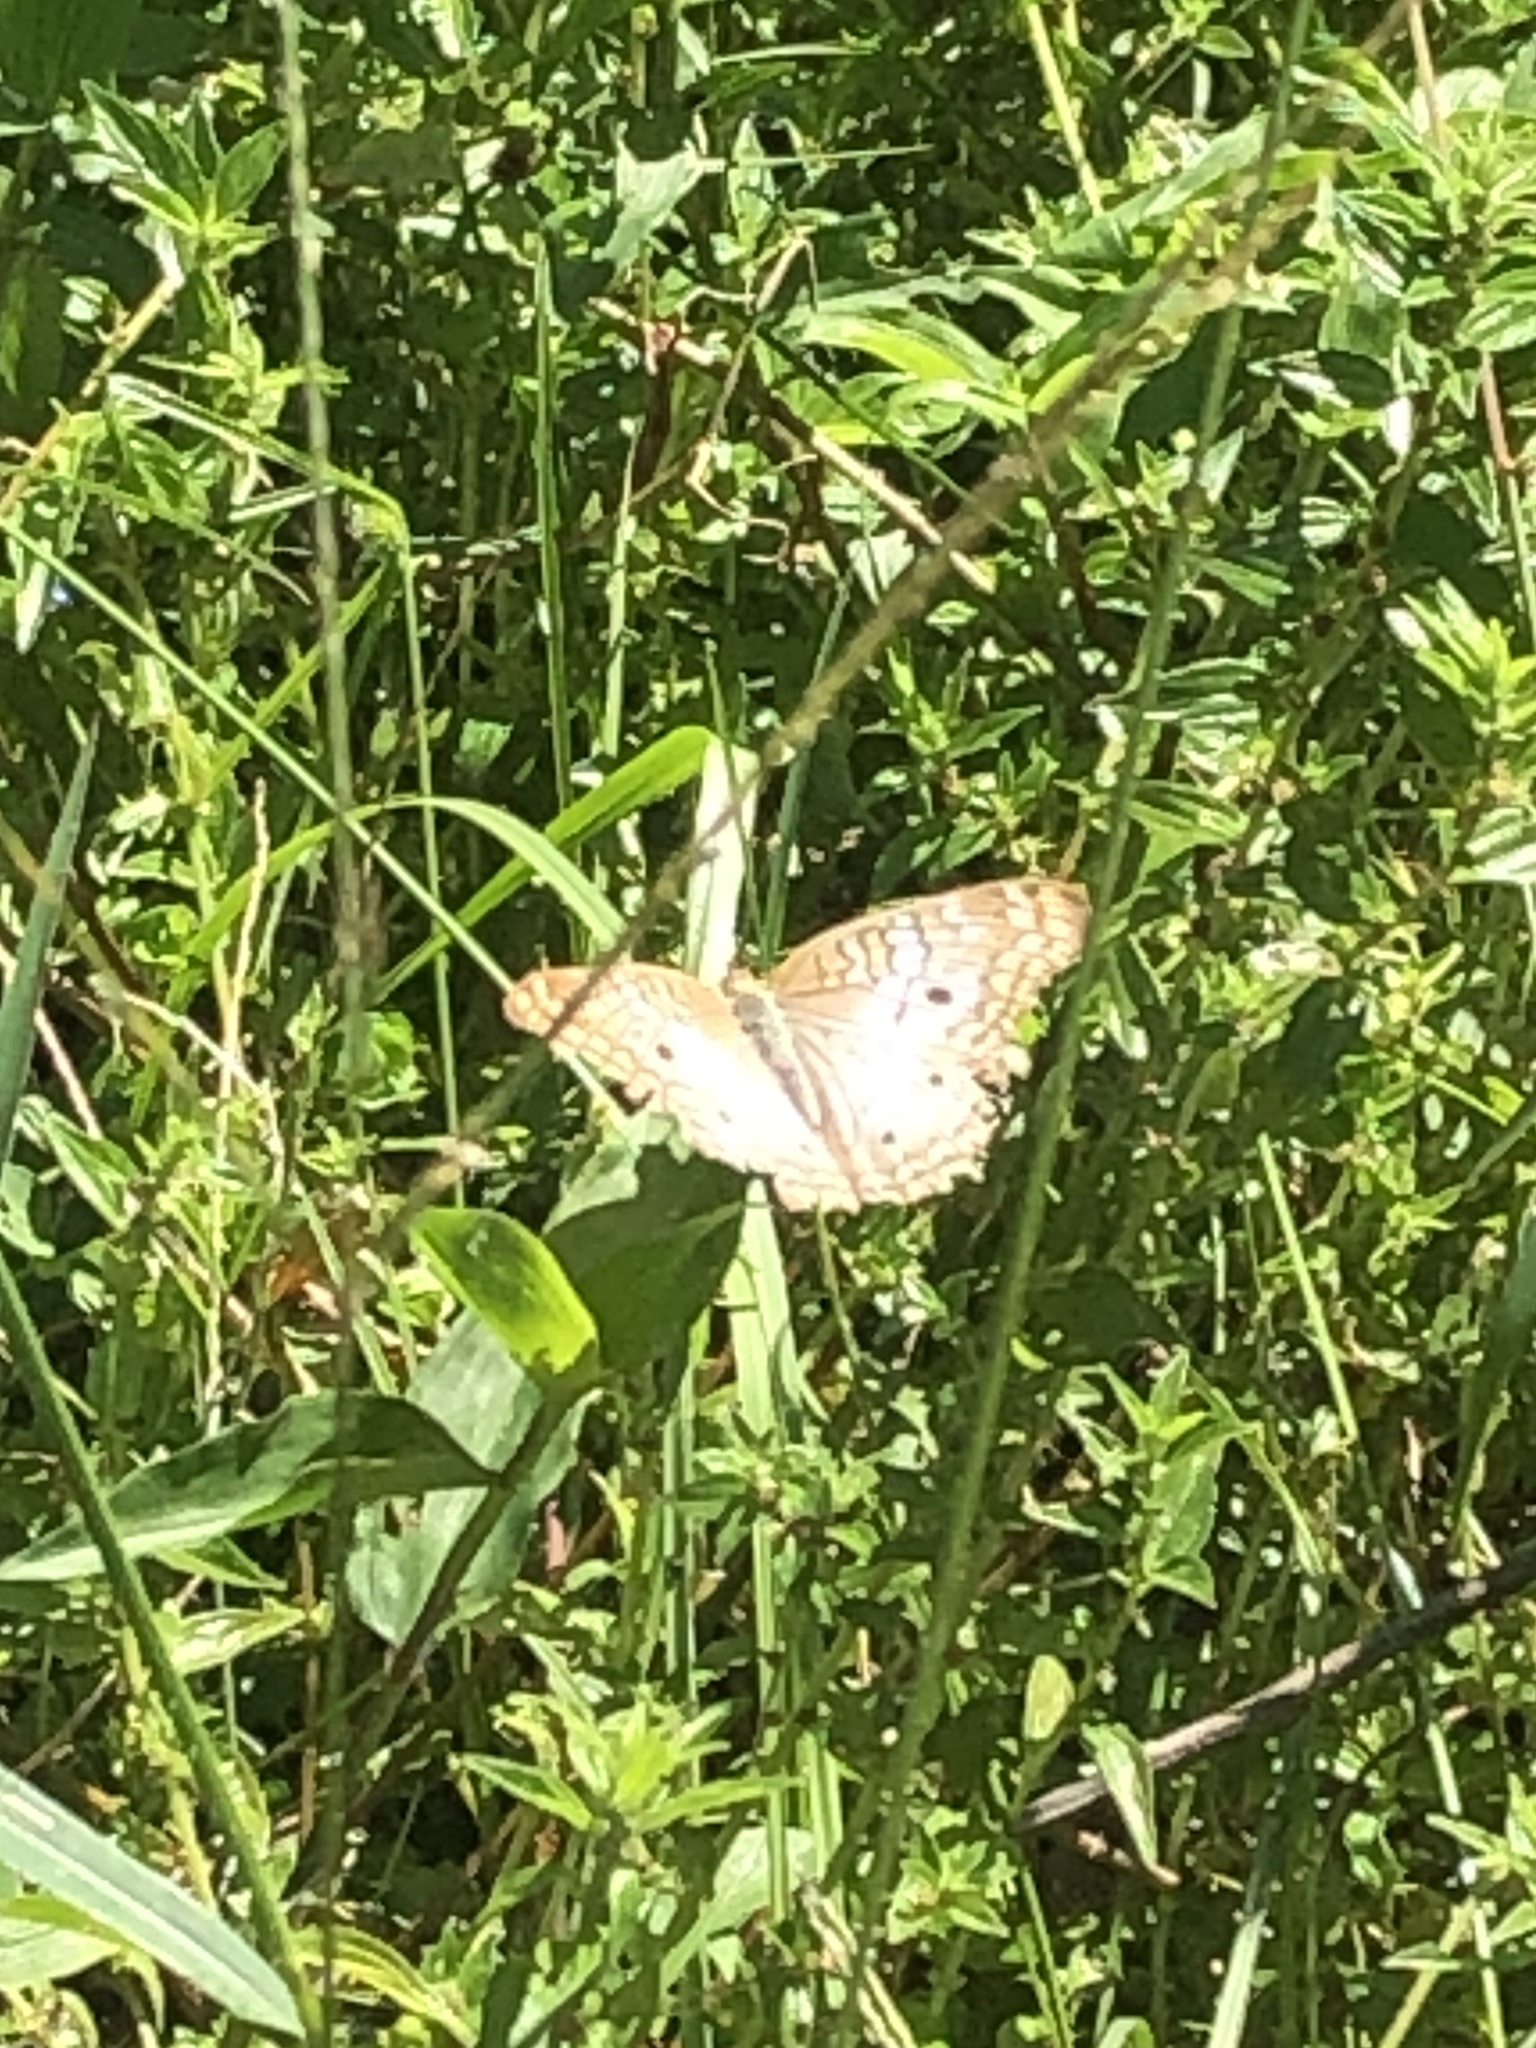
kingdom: Animalia
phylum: Arthropoda
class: Insecta
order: Lepidoptera
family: Nymphalidae
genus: Anartia
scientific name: Anartia jatrophae
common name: White peacock
